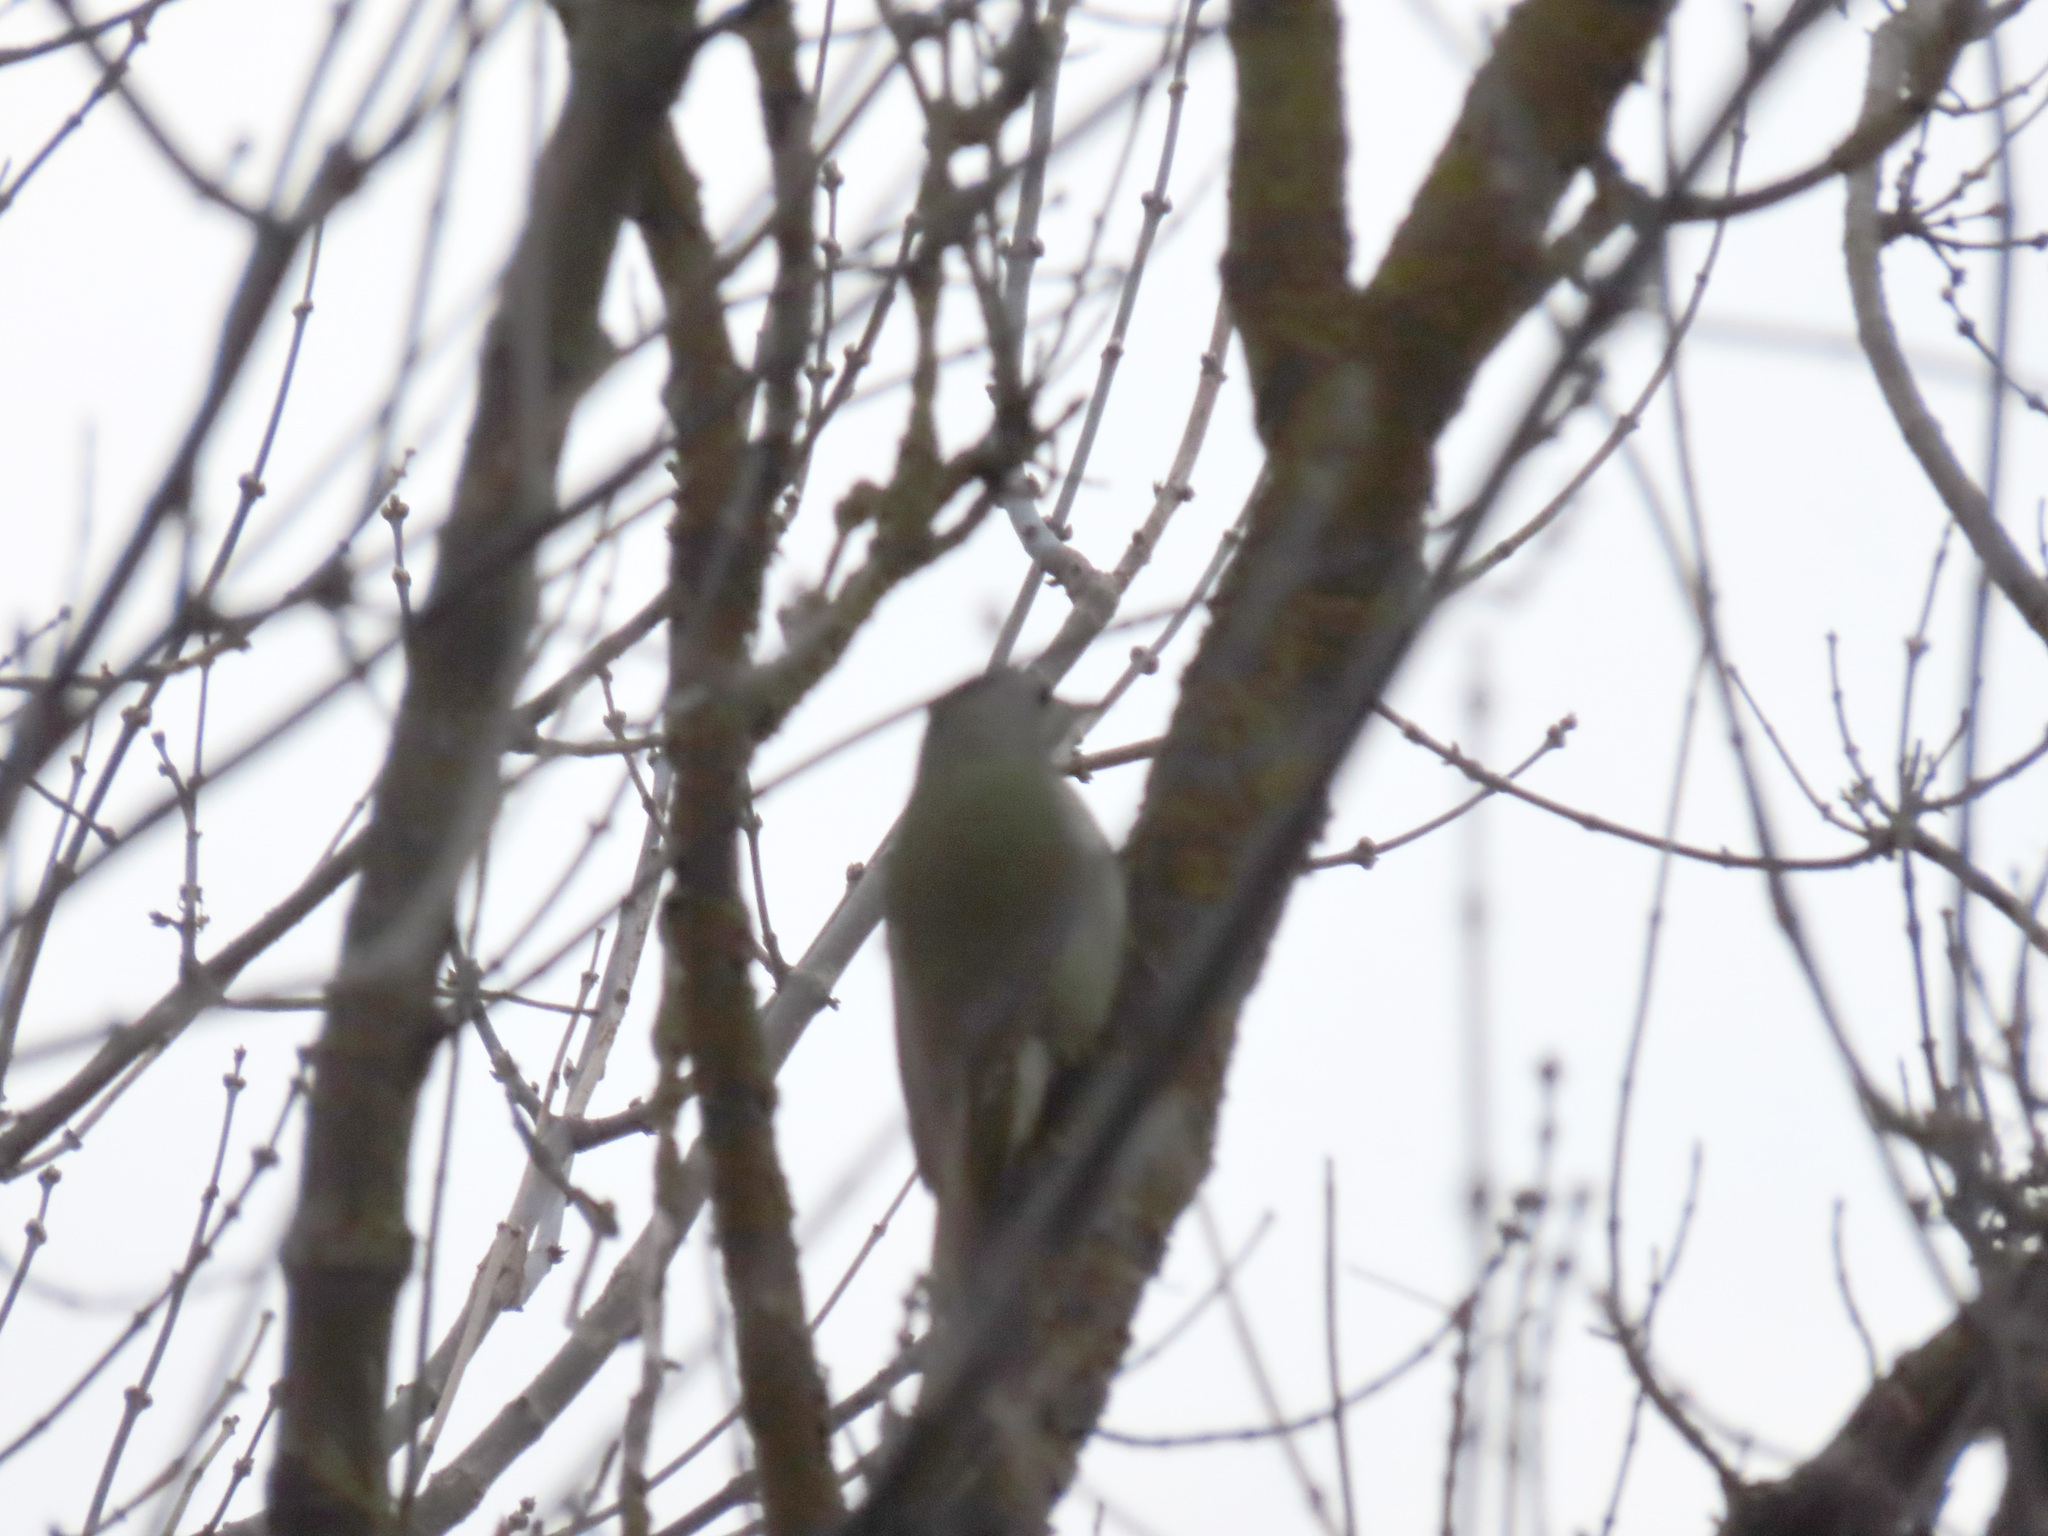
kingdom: Animalia
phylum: Chordata
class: Aves
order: Piciformes
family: Picidae
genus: Picus
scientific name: Picus canus
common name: Grey-headed woodpecker
